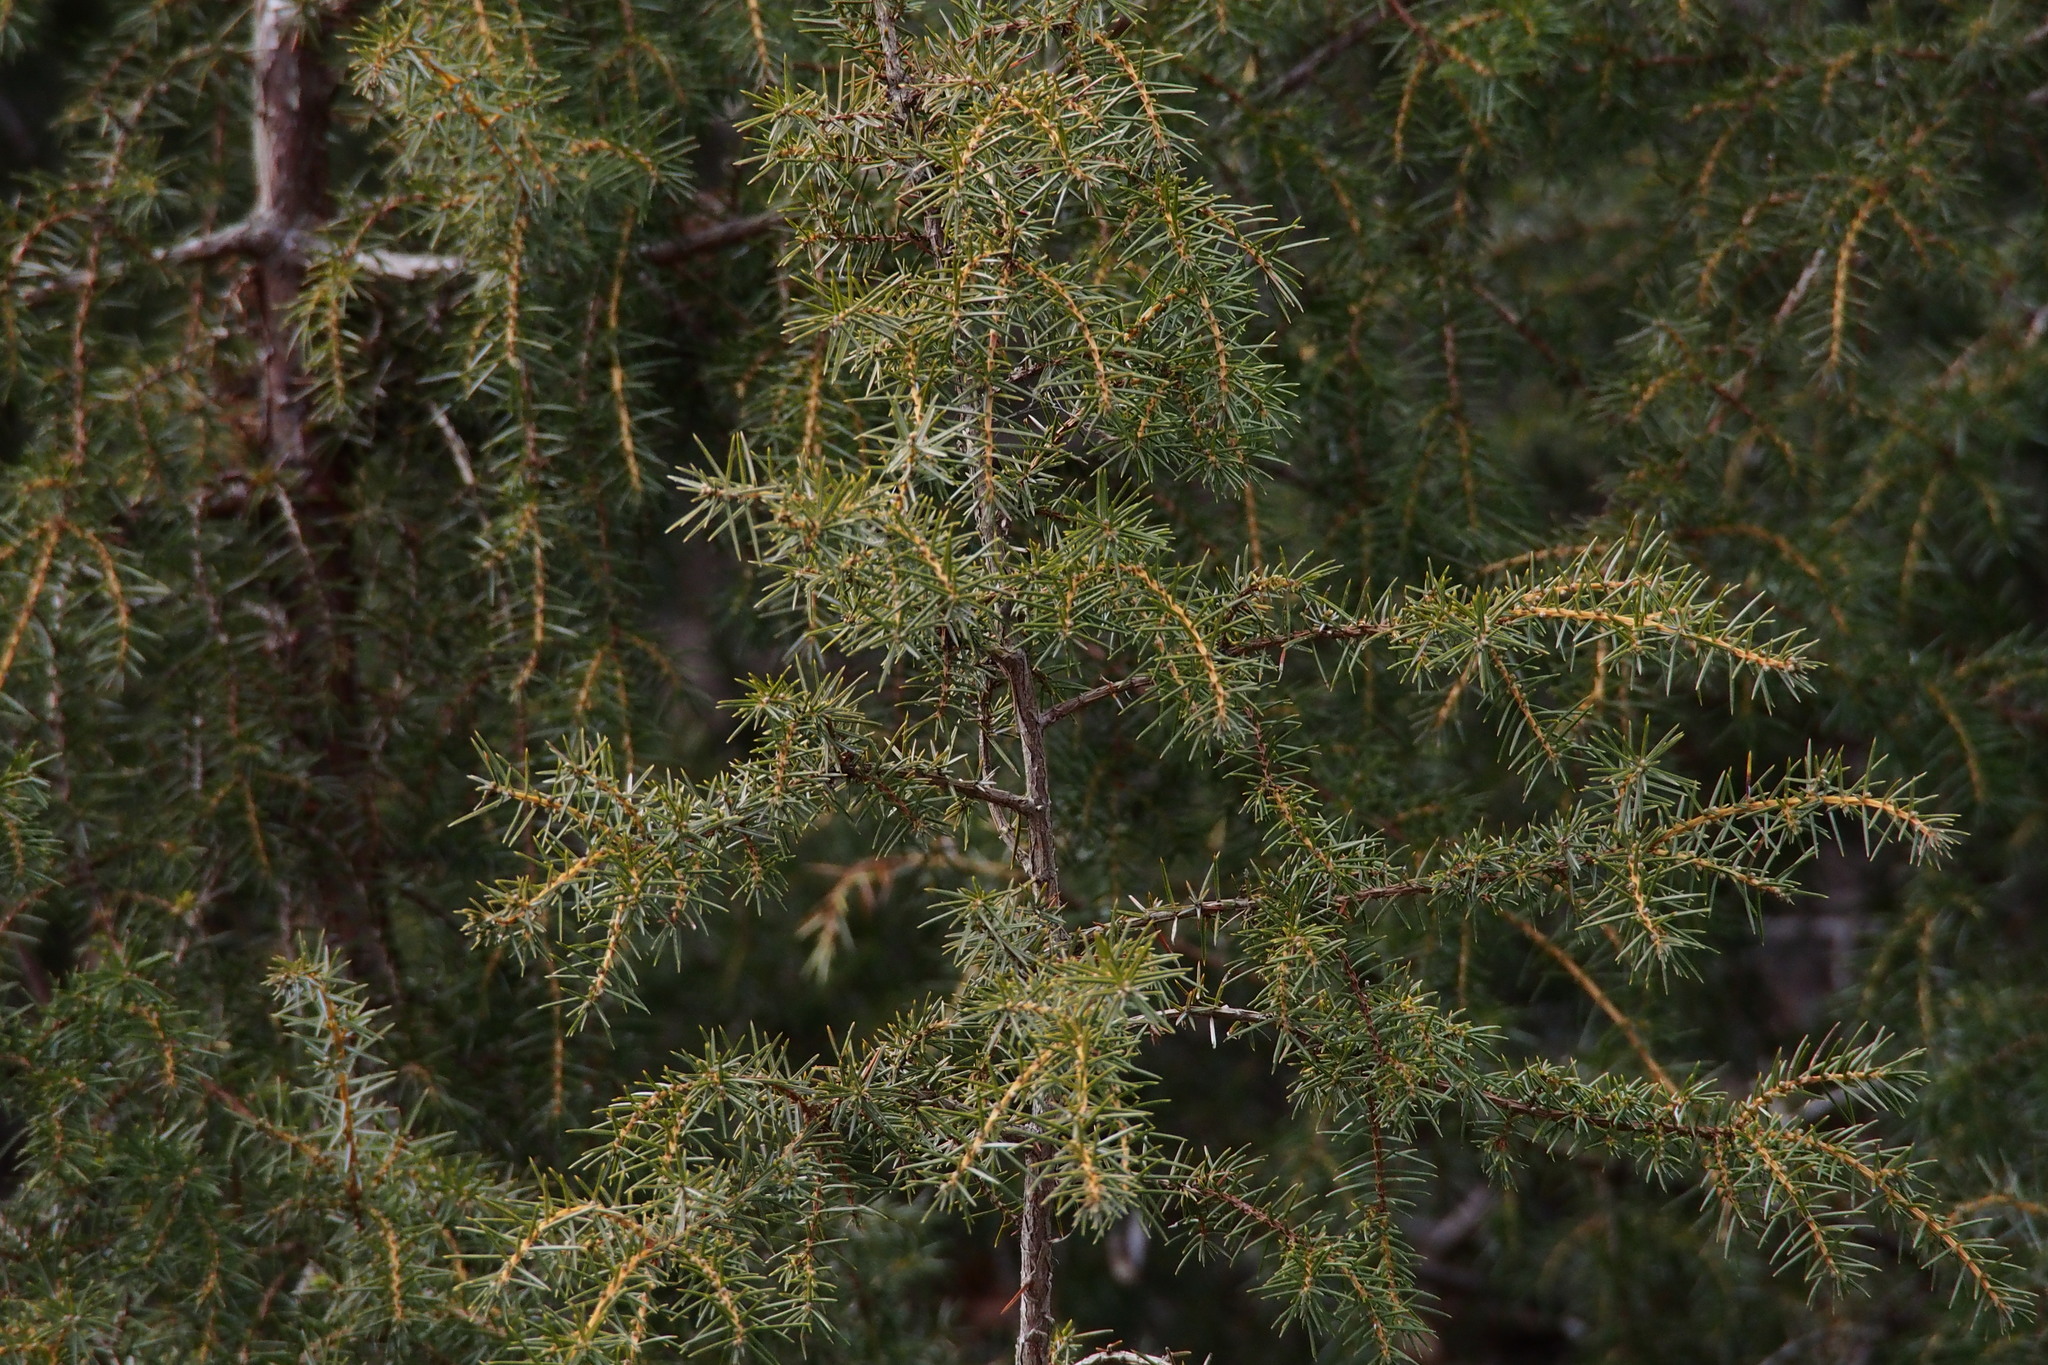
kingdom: Plantae
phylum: Tracheophyta
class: Pinopsida
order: Pinales
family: Cupressaceae
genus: Juniperus
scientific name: Juniperus rigida
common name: Needle juniper
